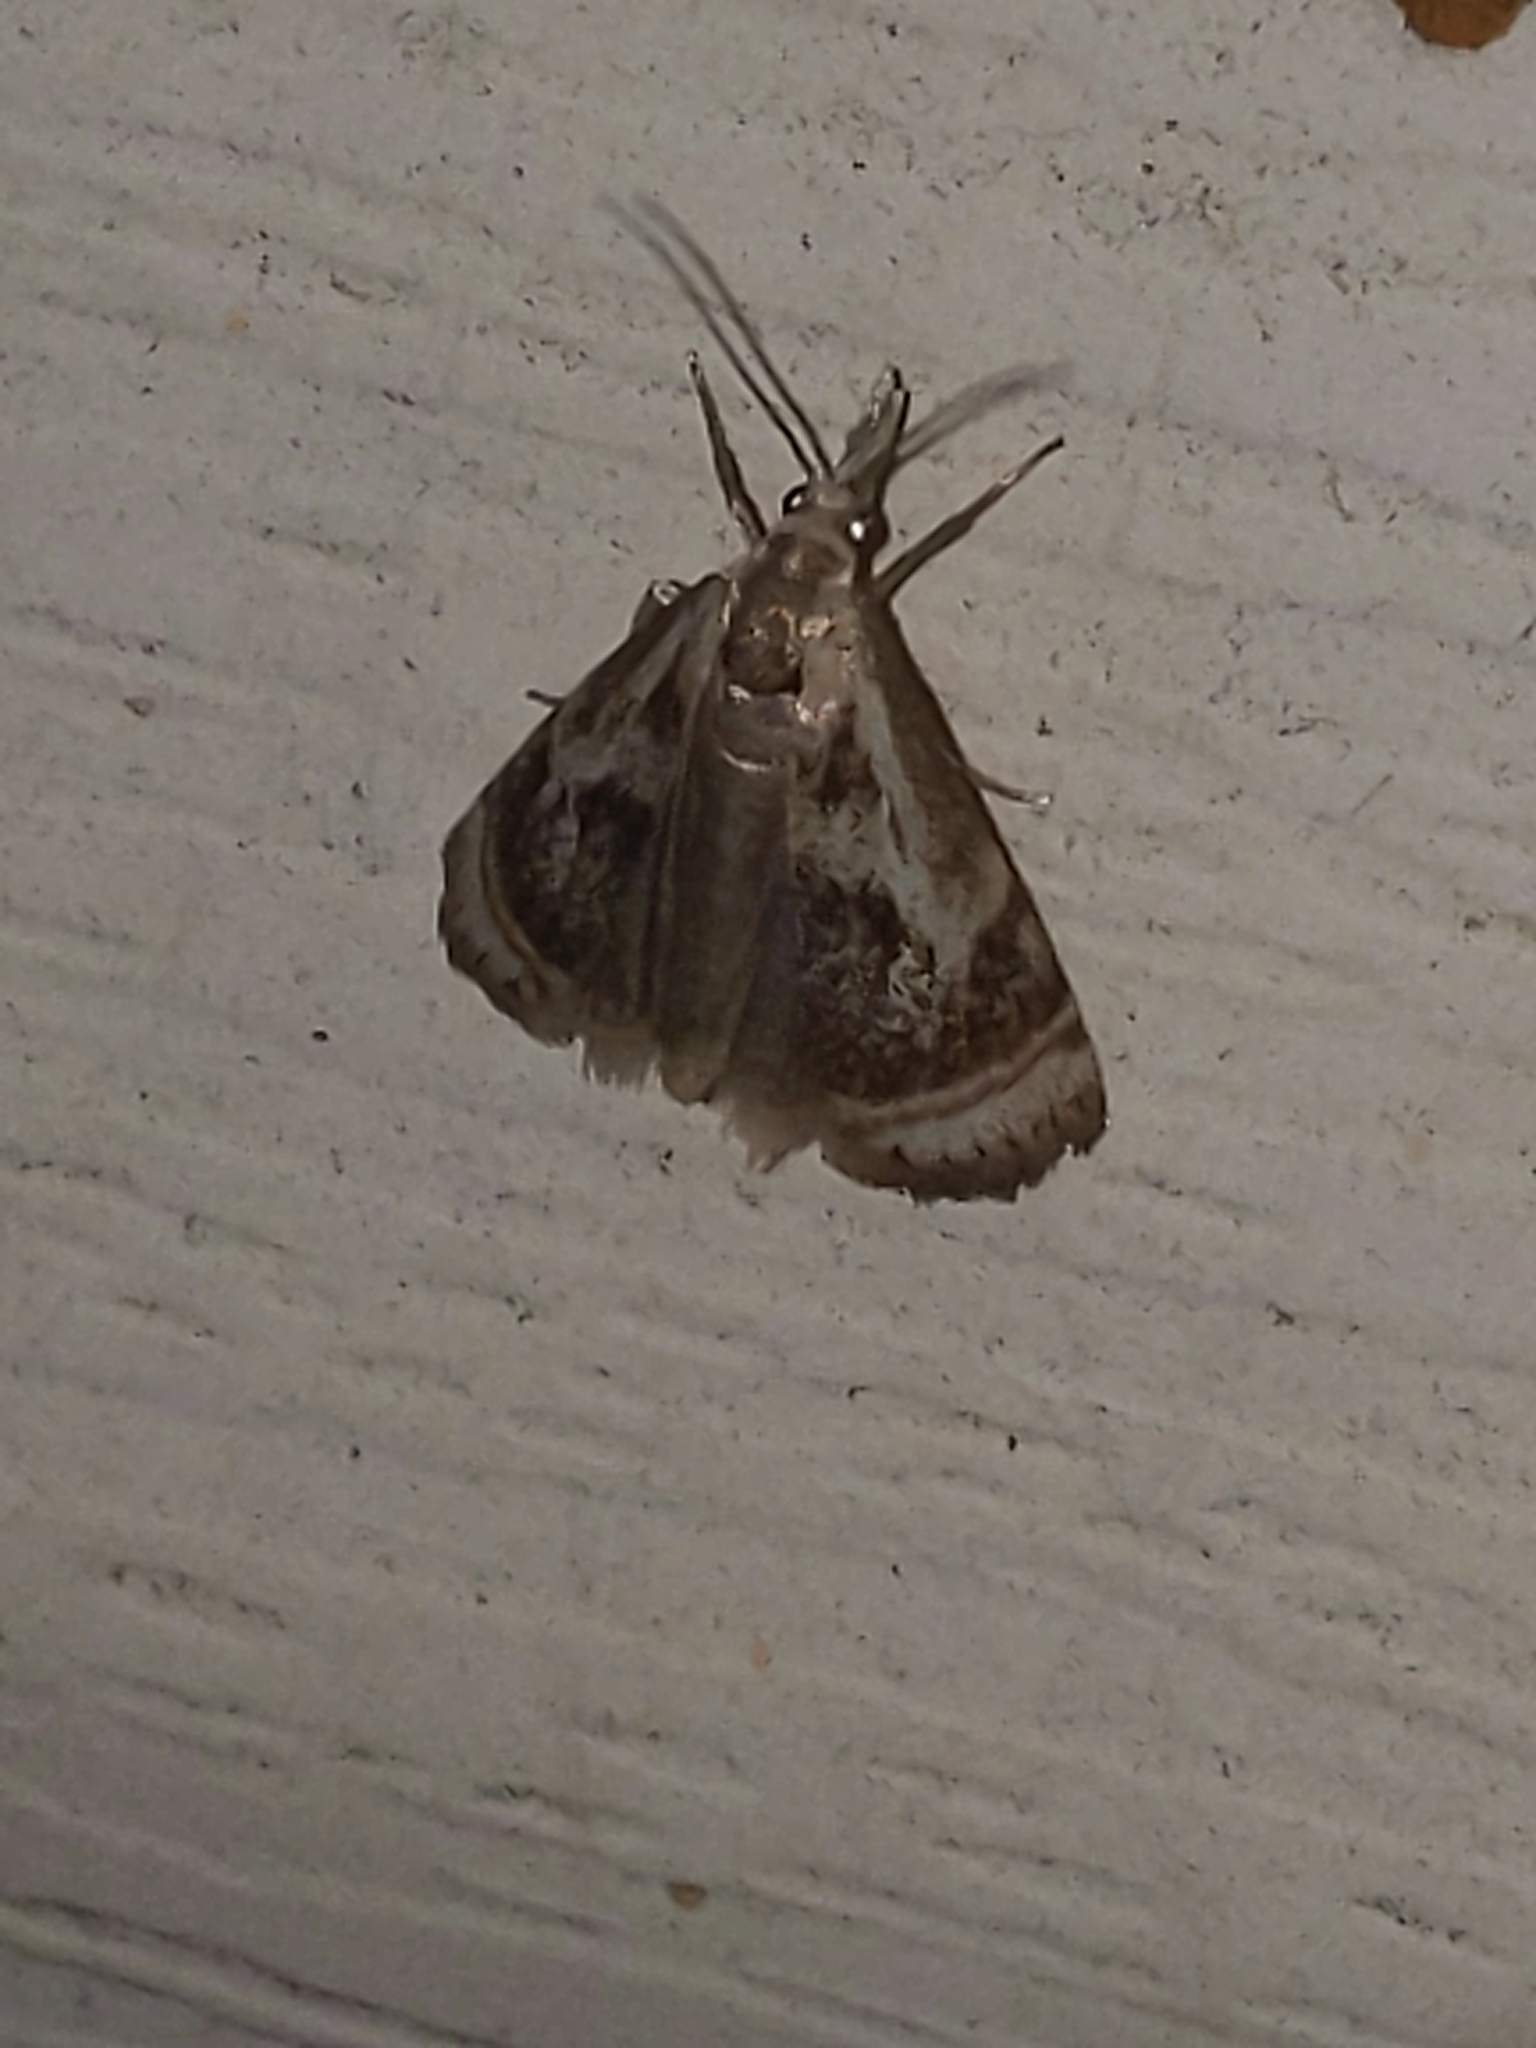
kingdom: Animalia
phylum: Arthropoda
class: Insecta
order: Lepidoptera
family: Crambidae
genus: Microcrambus
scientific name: Microcrambus elegans
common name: Elegant grass-veneer
